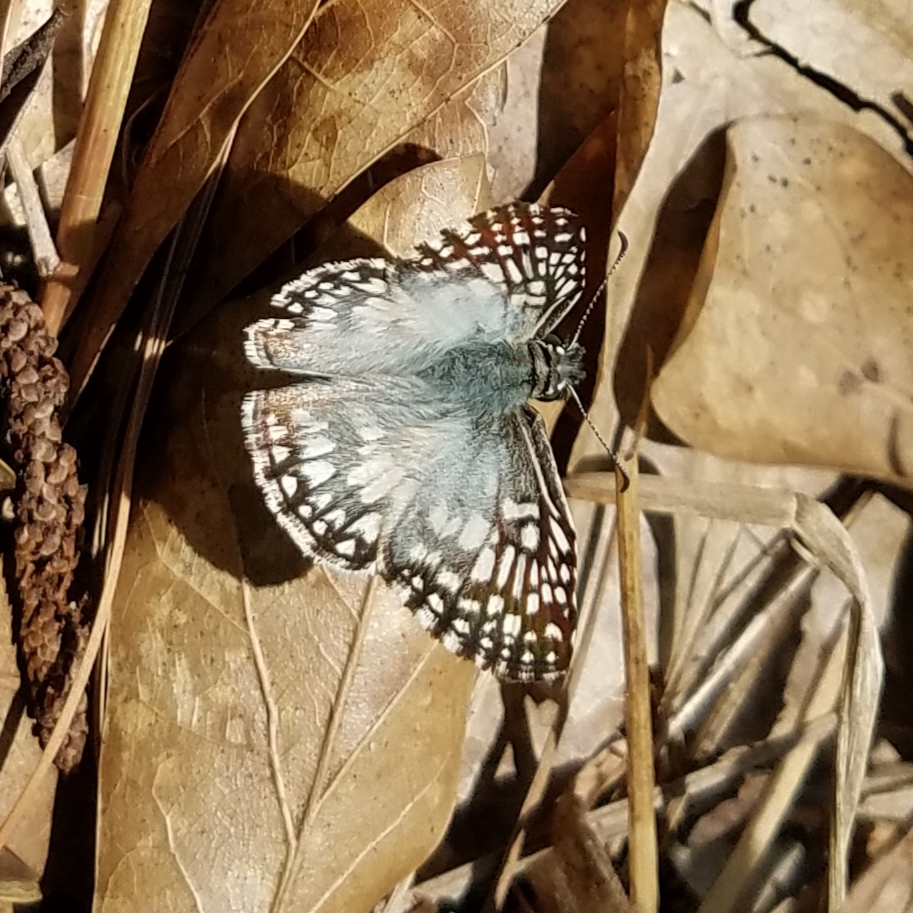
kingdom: Animalia
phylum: Arthropoda
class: Insecta
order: Lepidoptera
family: Hesperiidae
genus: Pyrgus
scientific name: Pyrgus oileus
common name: Tropical checkered-skipper
